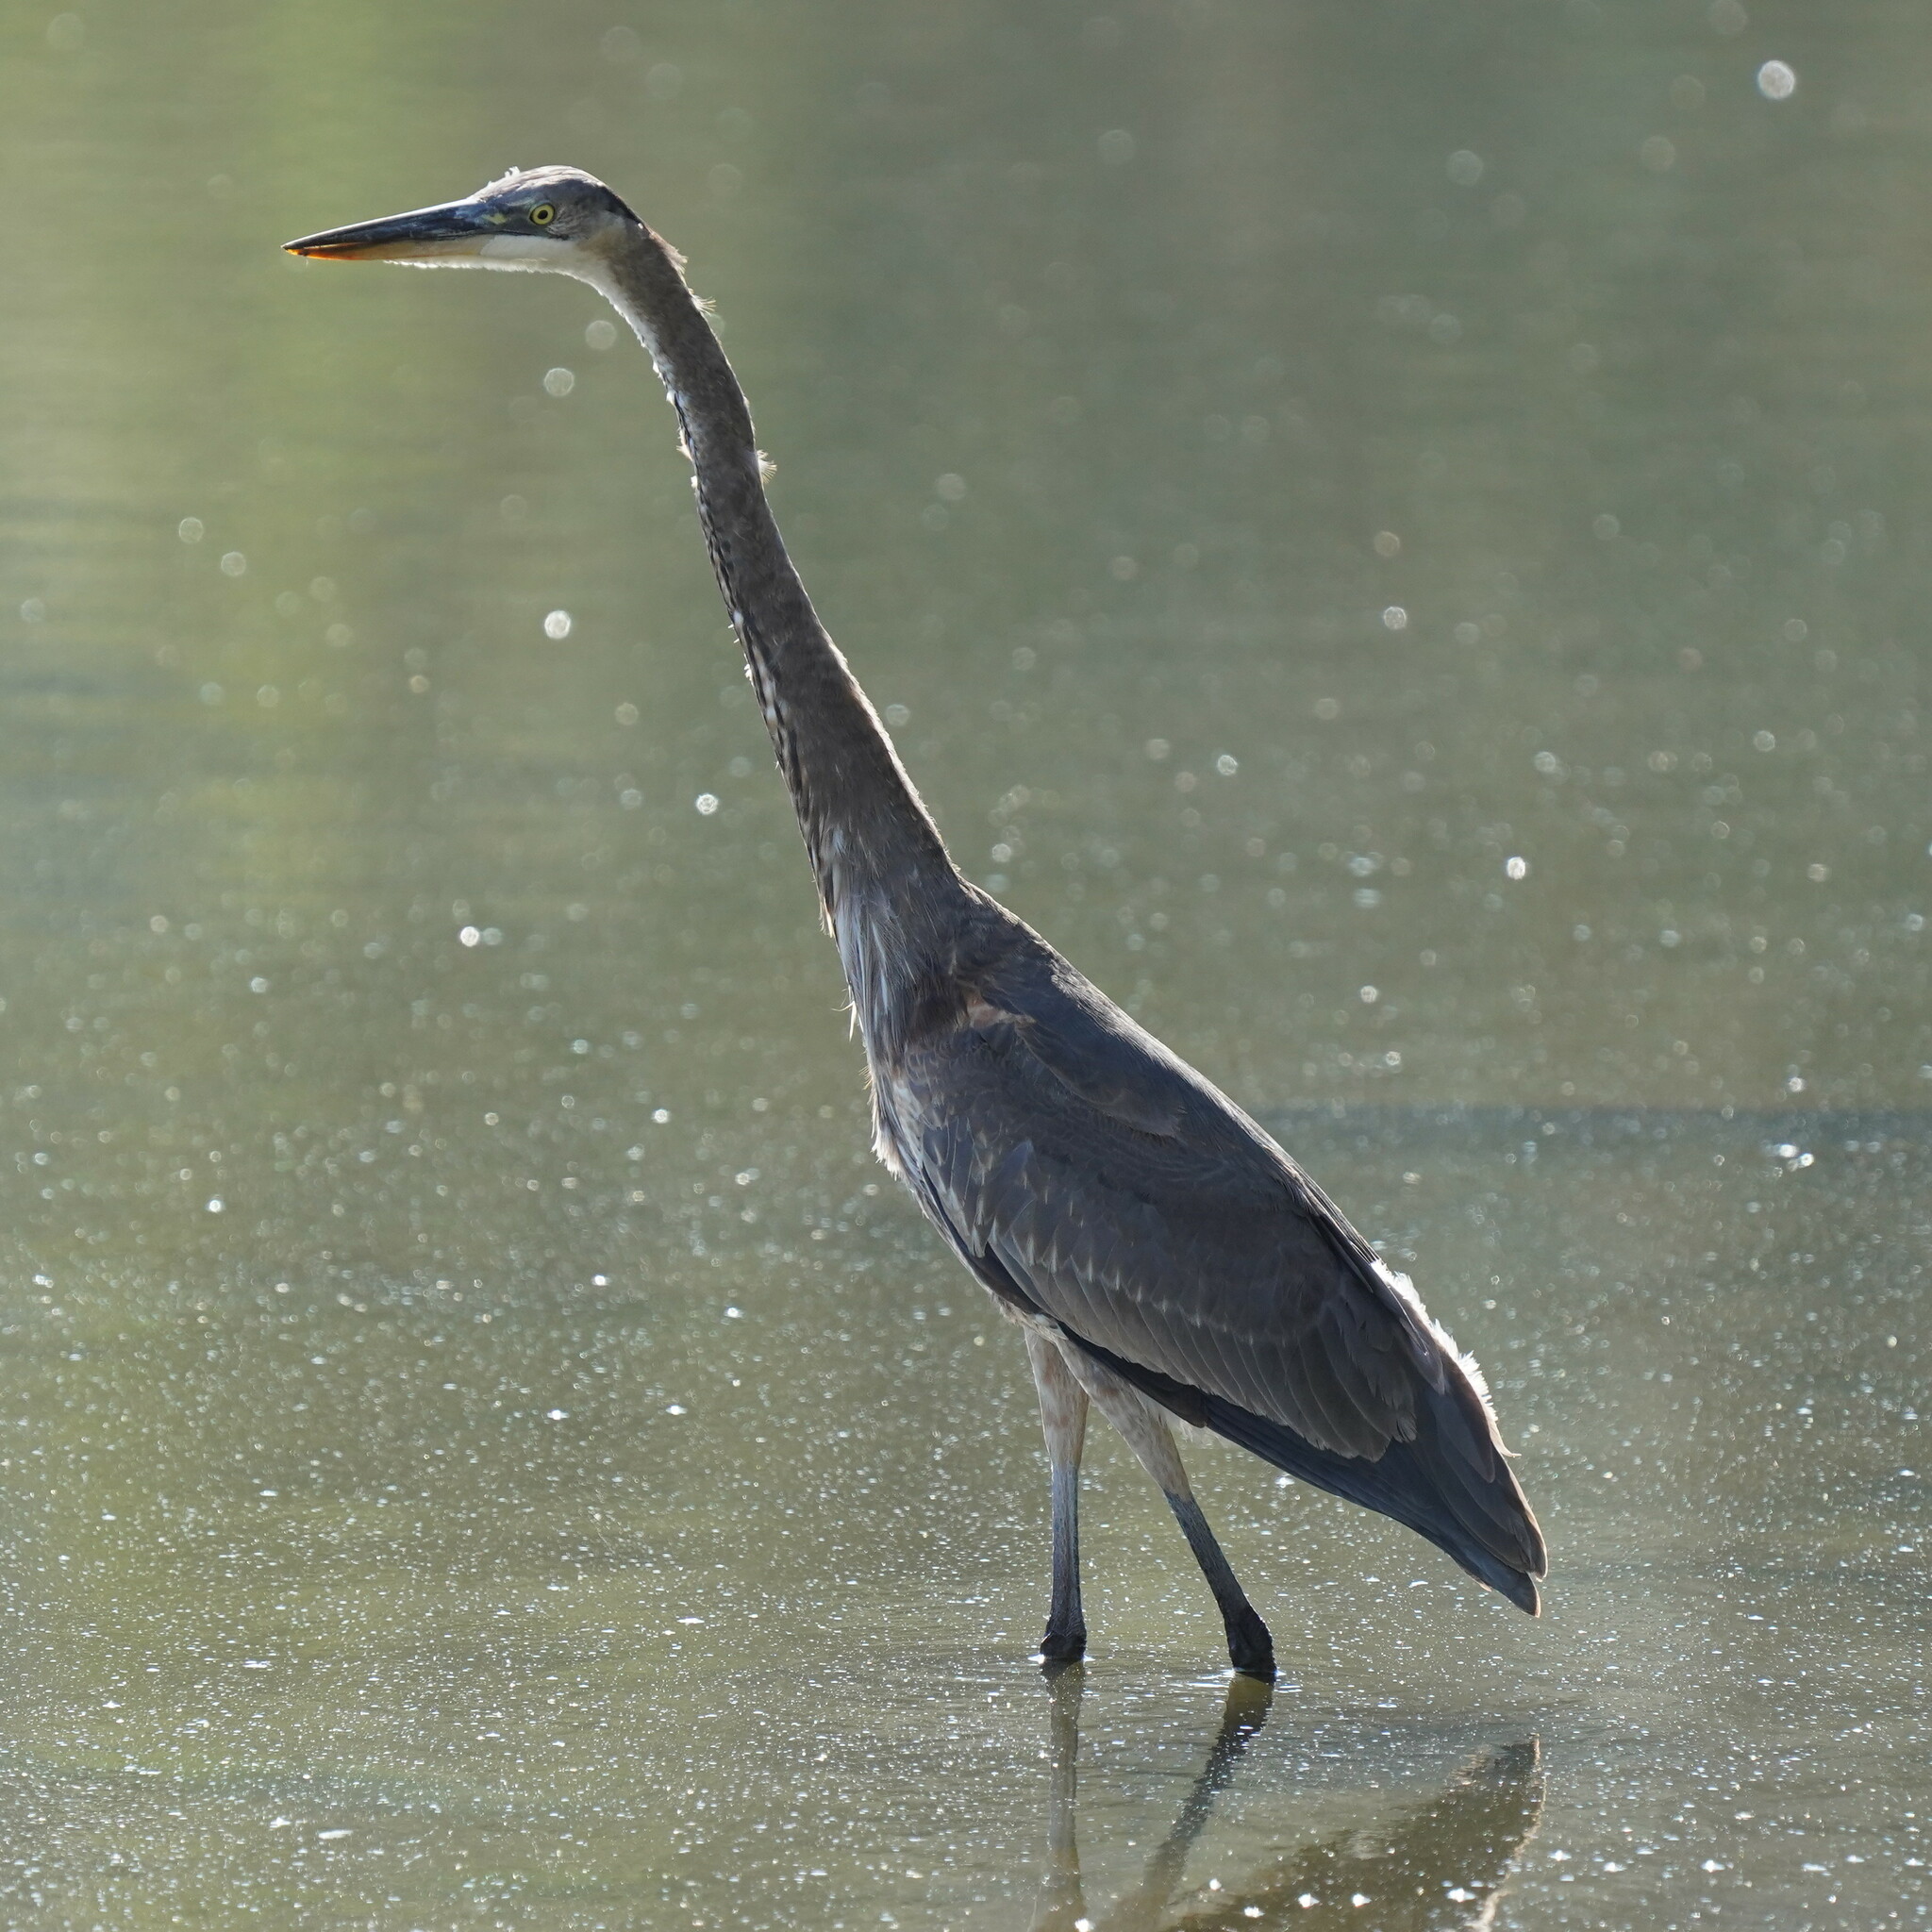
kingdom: Animalia
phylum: Chordata
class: Aves
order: Pelecaniformes
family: Ardeidae
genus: Ardea
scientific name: Ardea herodias
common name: Great blue heron
